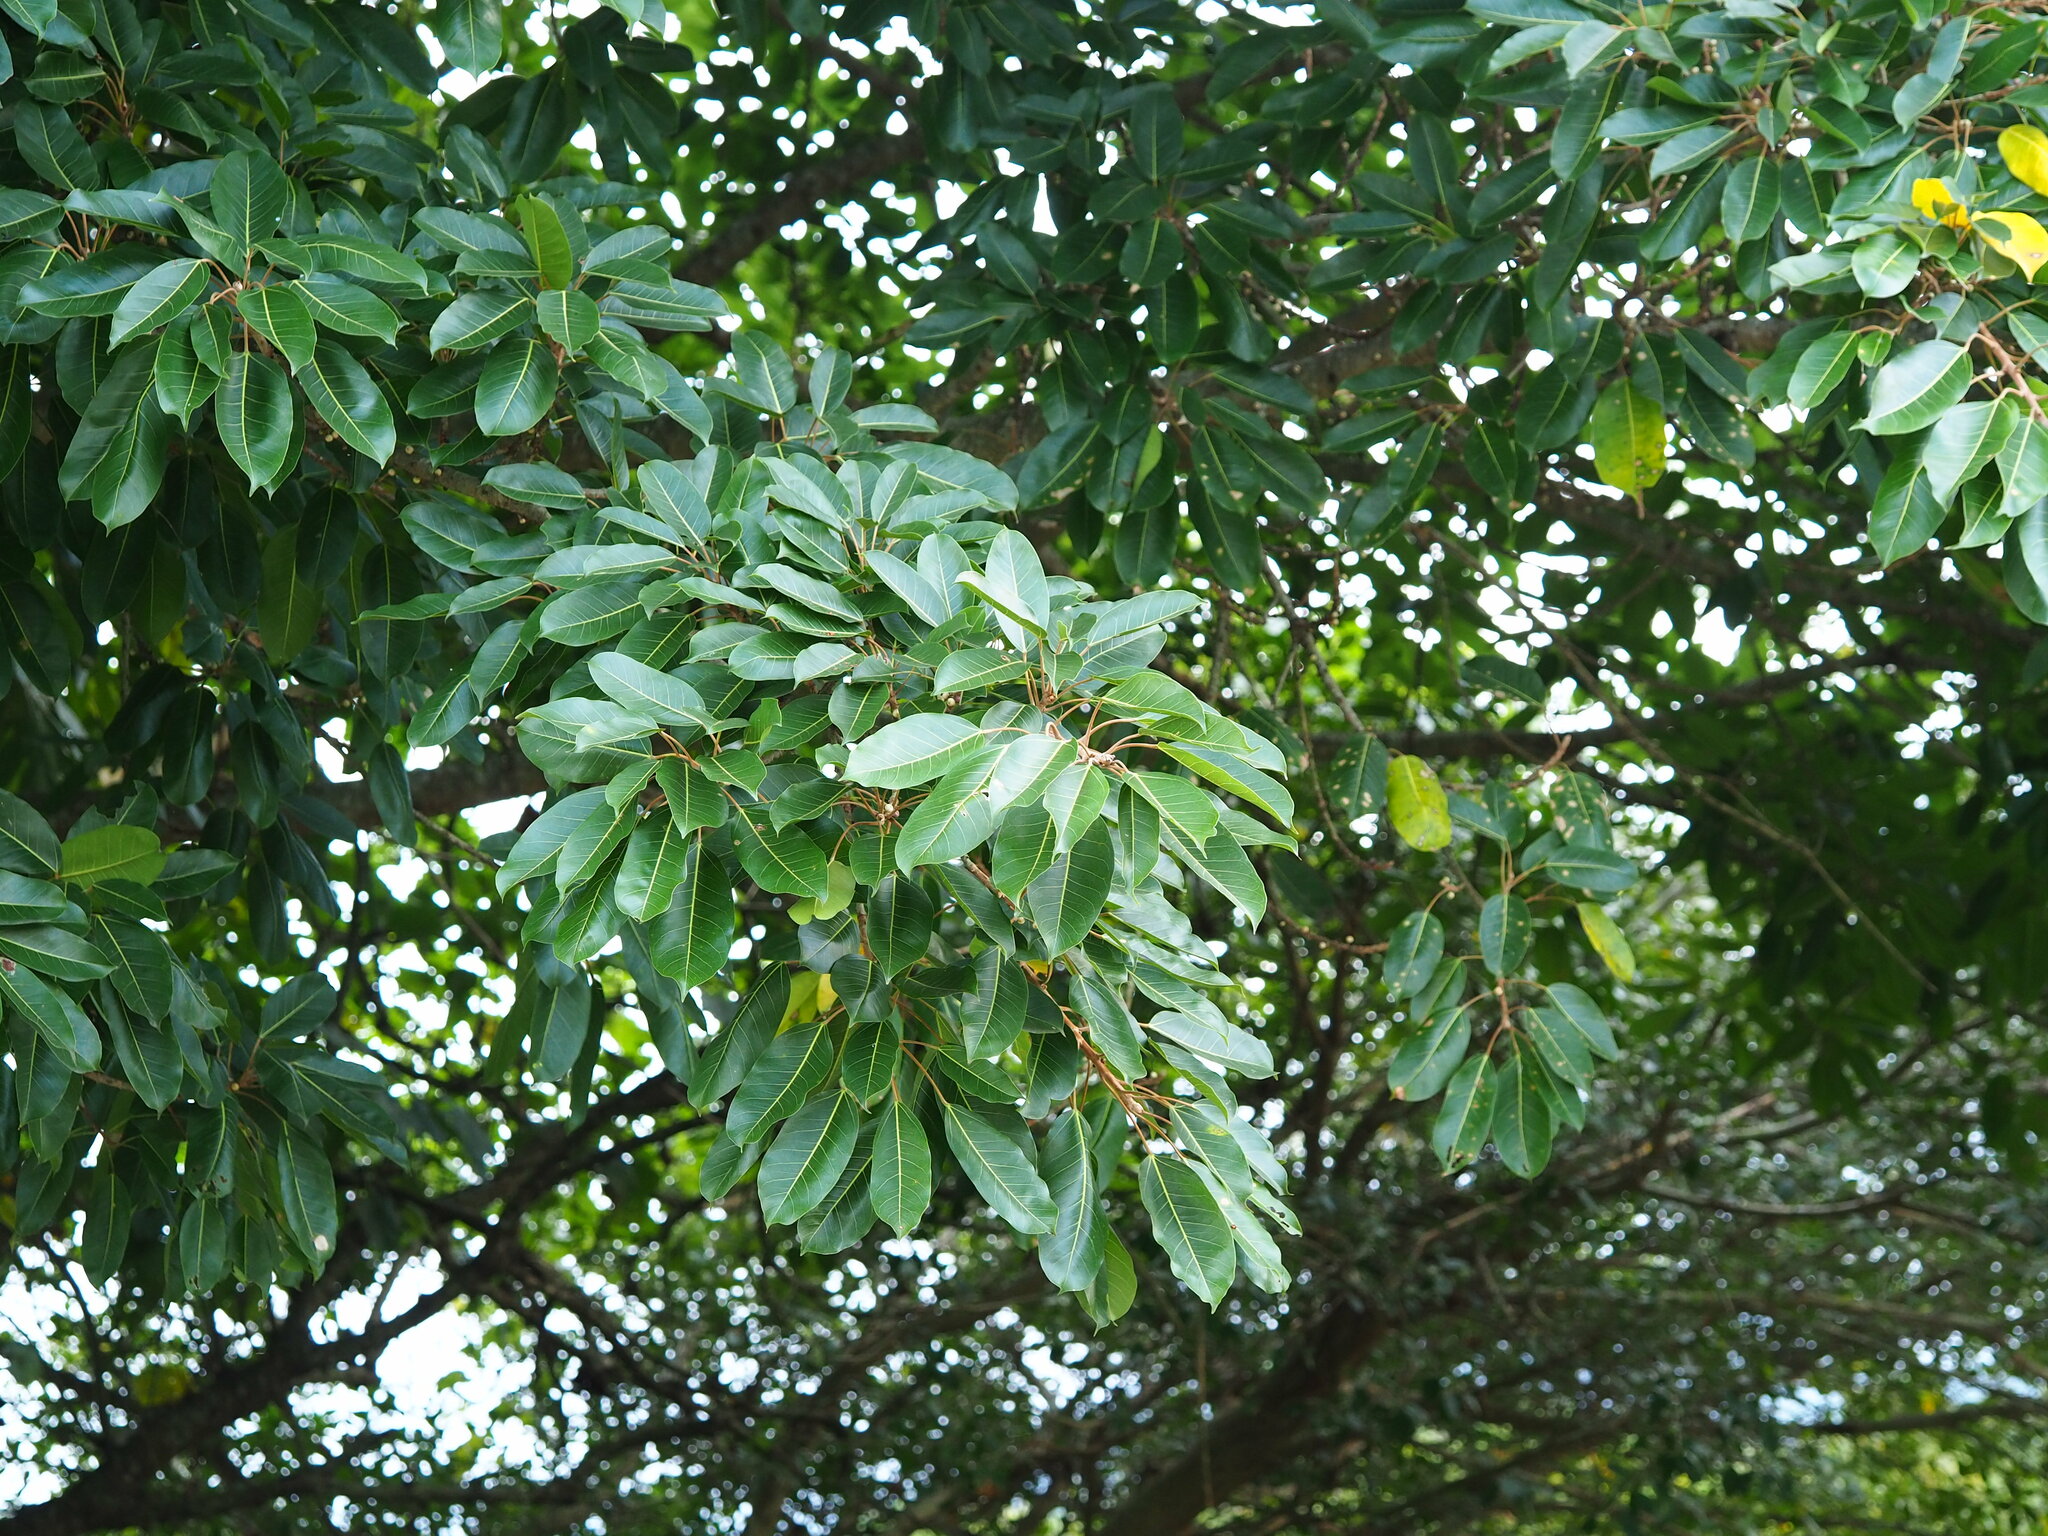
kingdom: Plantae
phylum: Tracheophyta
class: Magnoliopsida
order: Rosales
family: Moraceae
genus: Ficus
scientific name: Ficus subpisocarpa
